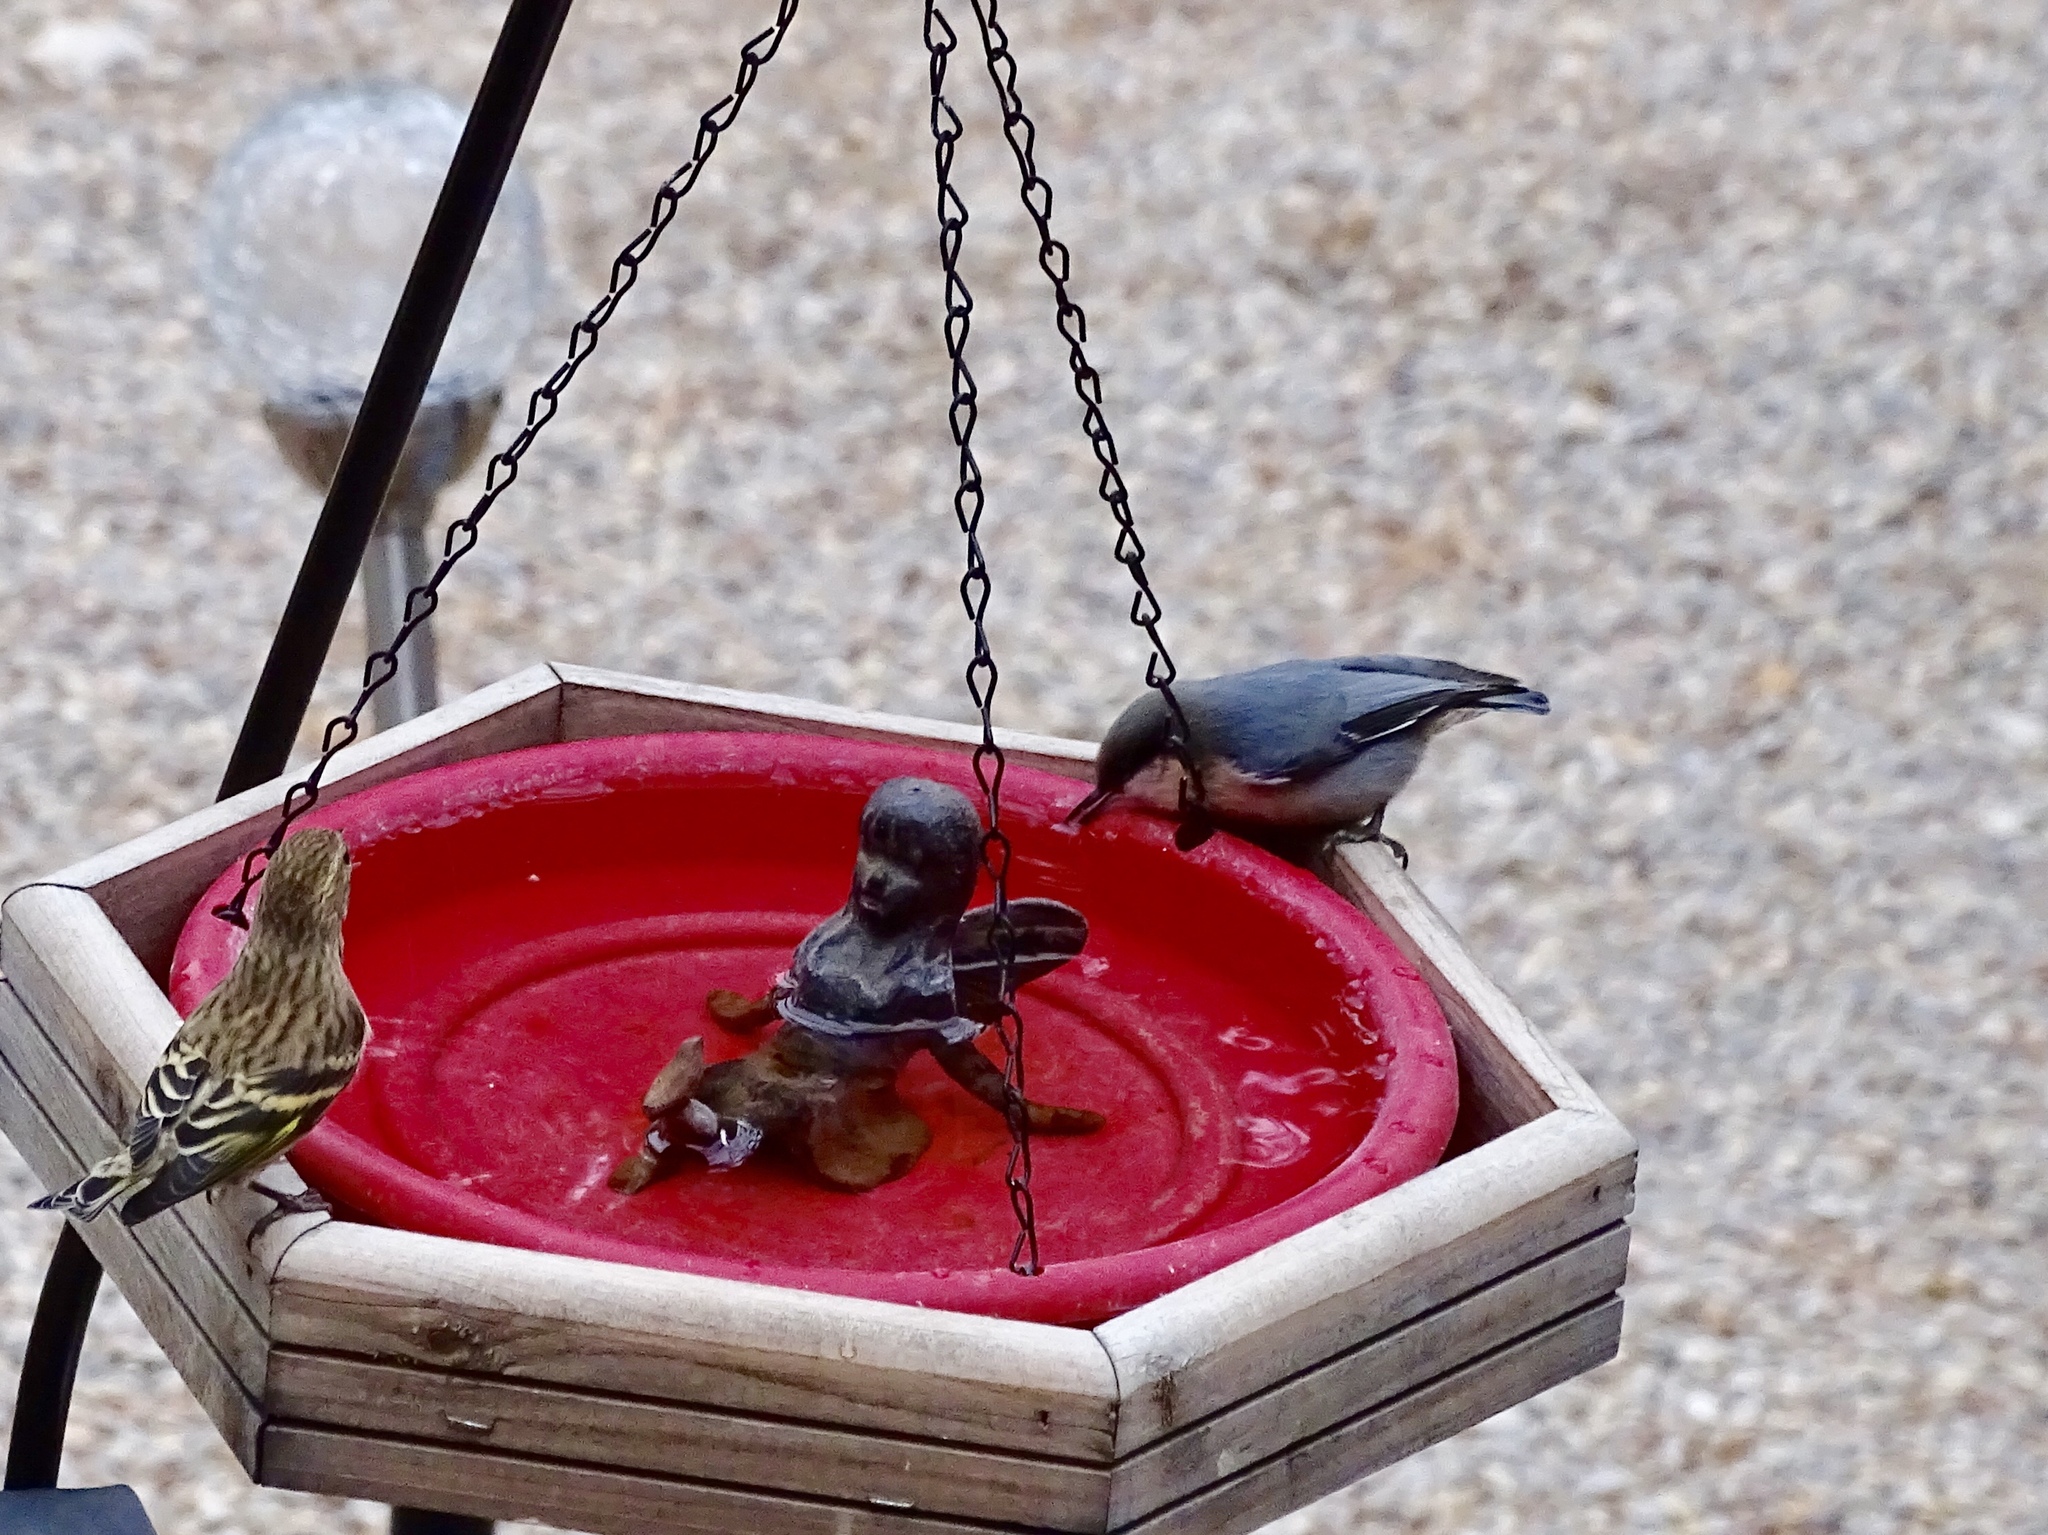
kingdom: Animalia
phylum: Chordata
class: Aves
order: Passeriformes
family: Sittidae
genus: Sitta
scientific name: Sitta pygmaea
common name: Pygmy nuthatch
